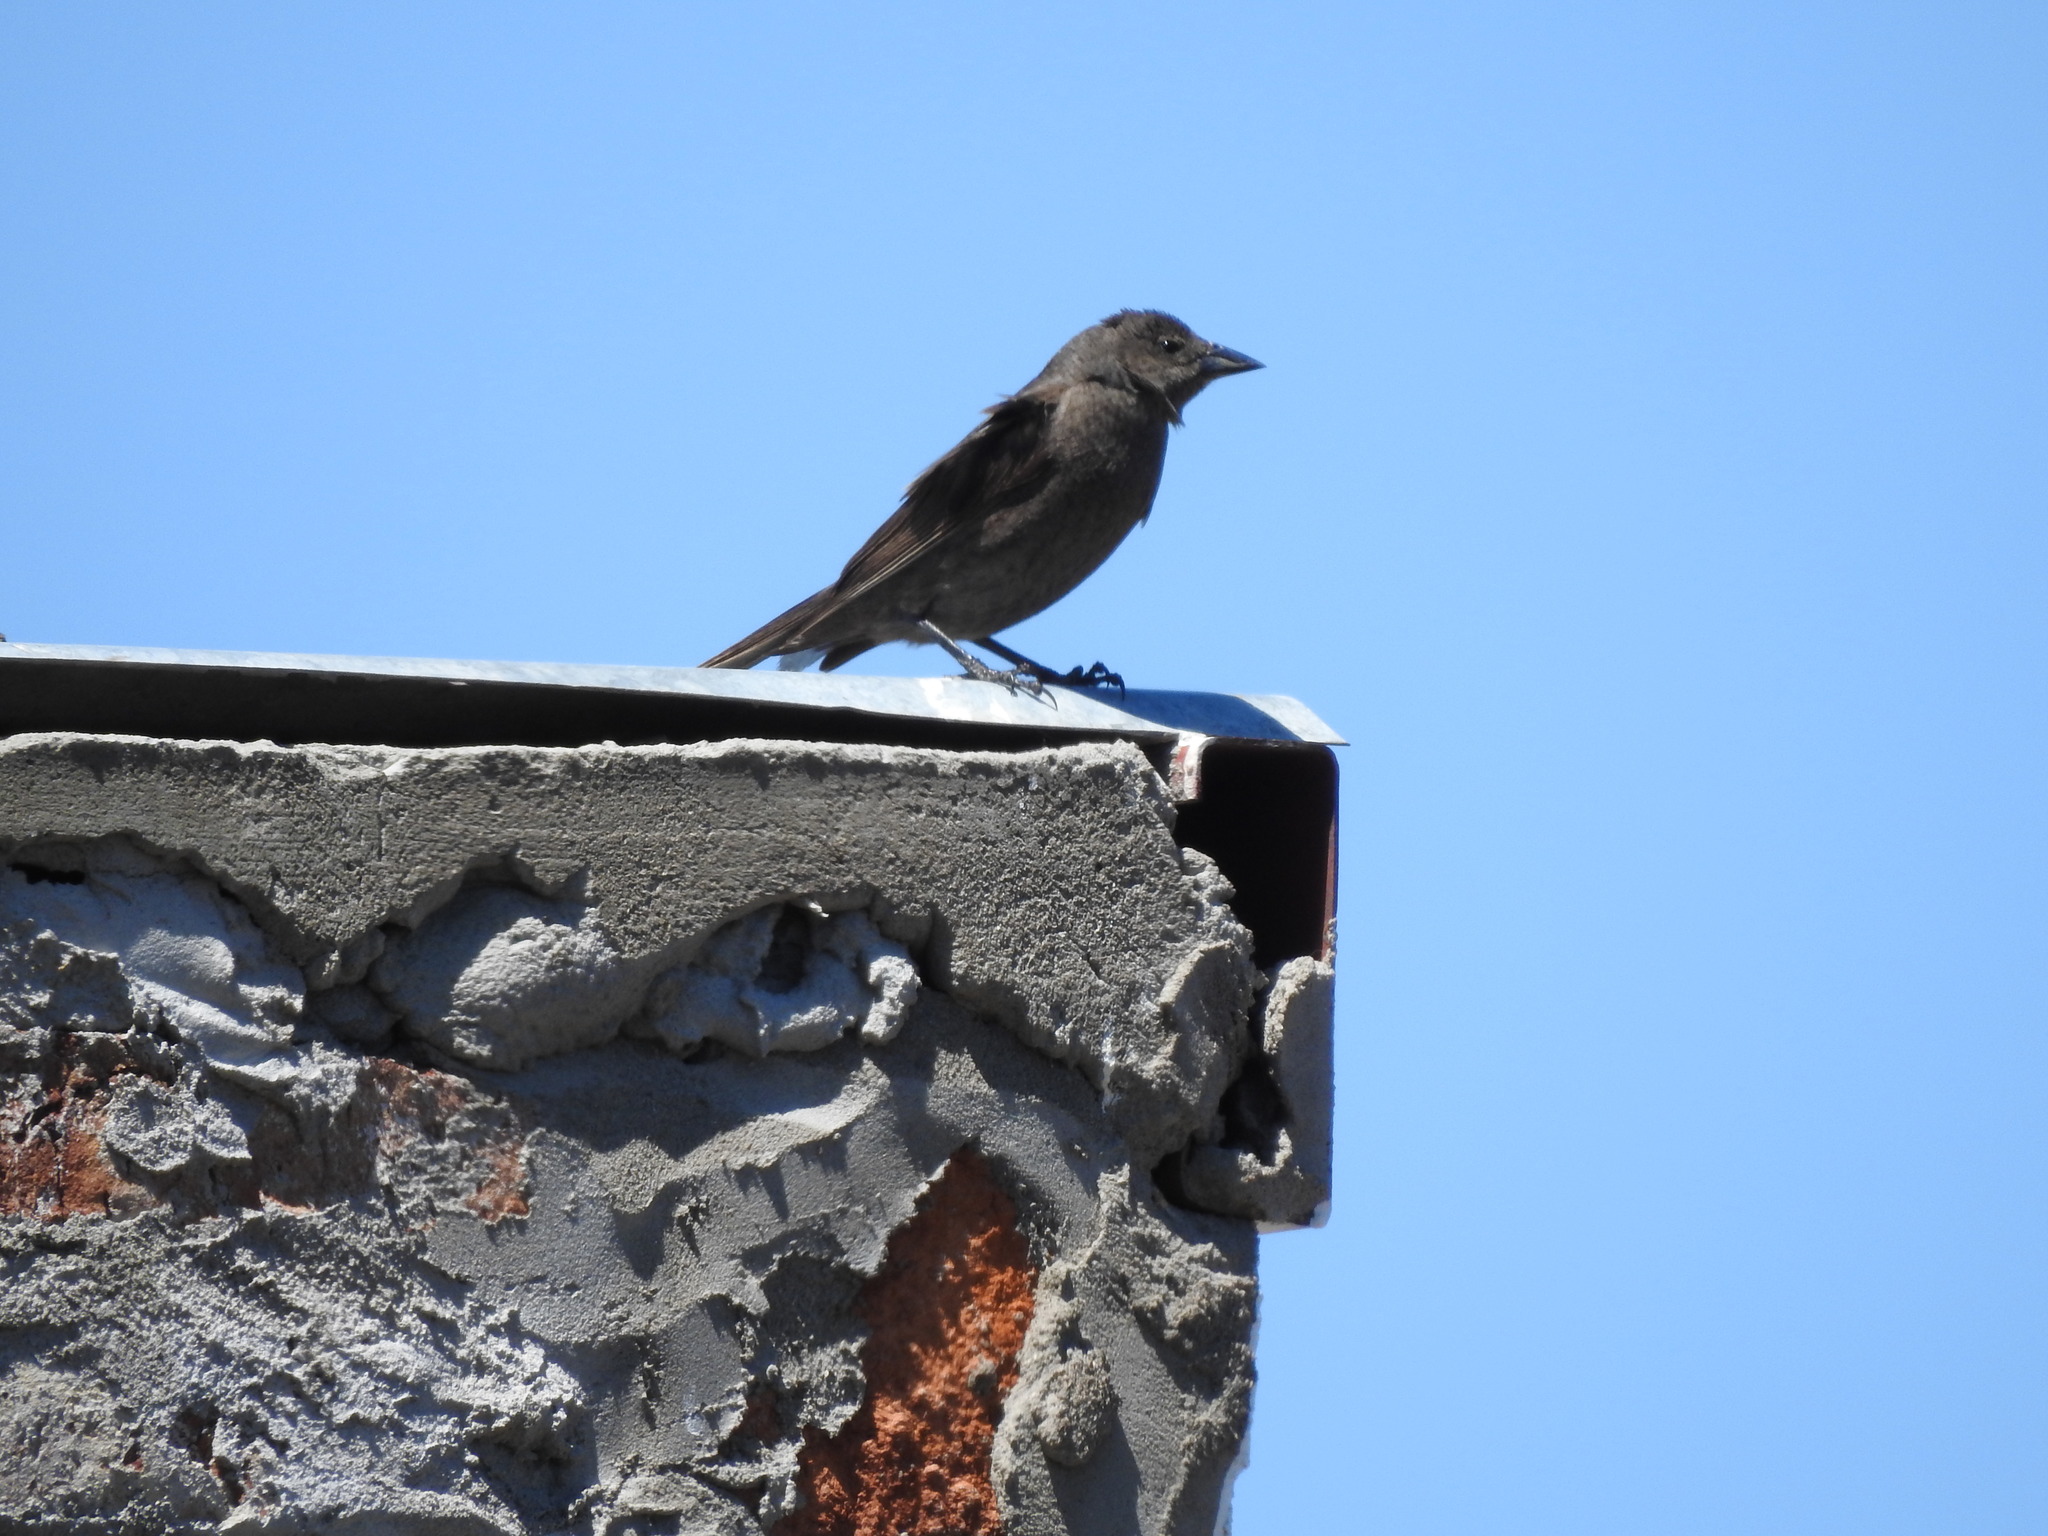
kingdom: Animalia
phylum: Chordata
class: Aves
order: Passeriformes
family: Icteridae
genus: Molothrus
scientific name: Molothrus bonariensis
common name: Shiny cowbird
